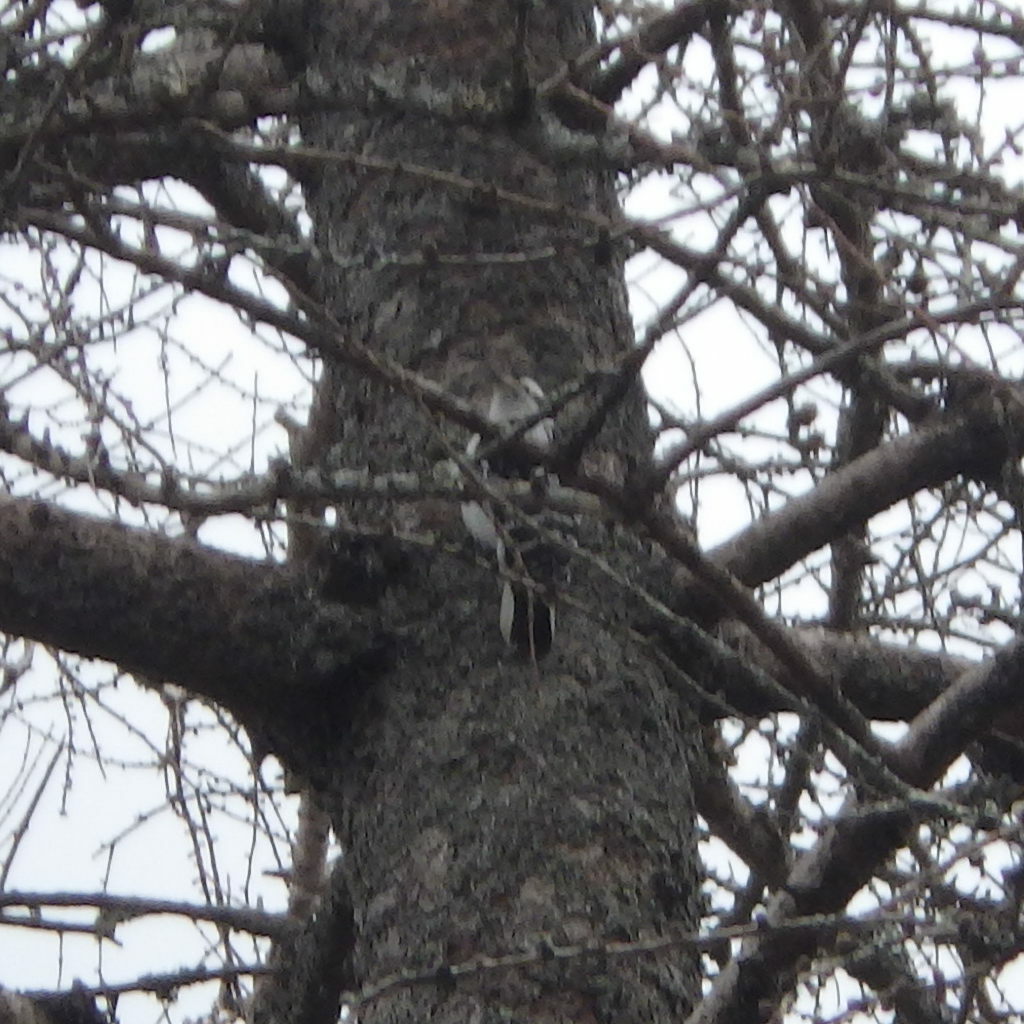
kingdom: Animalia
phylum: Chordata
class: Aves
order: Piciformes
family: Picidae
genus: Leuconotopicus
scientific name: Leuconotopicus villosus
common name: Hairy woodpecker
